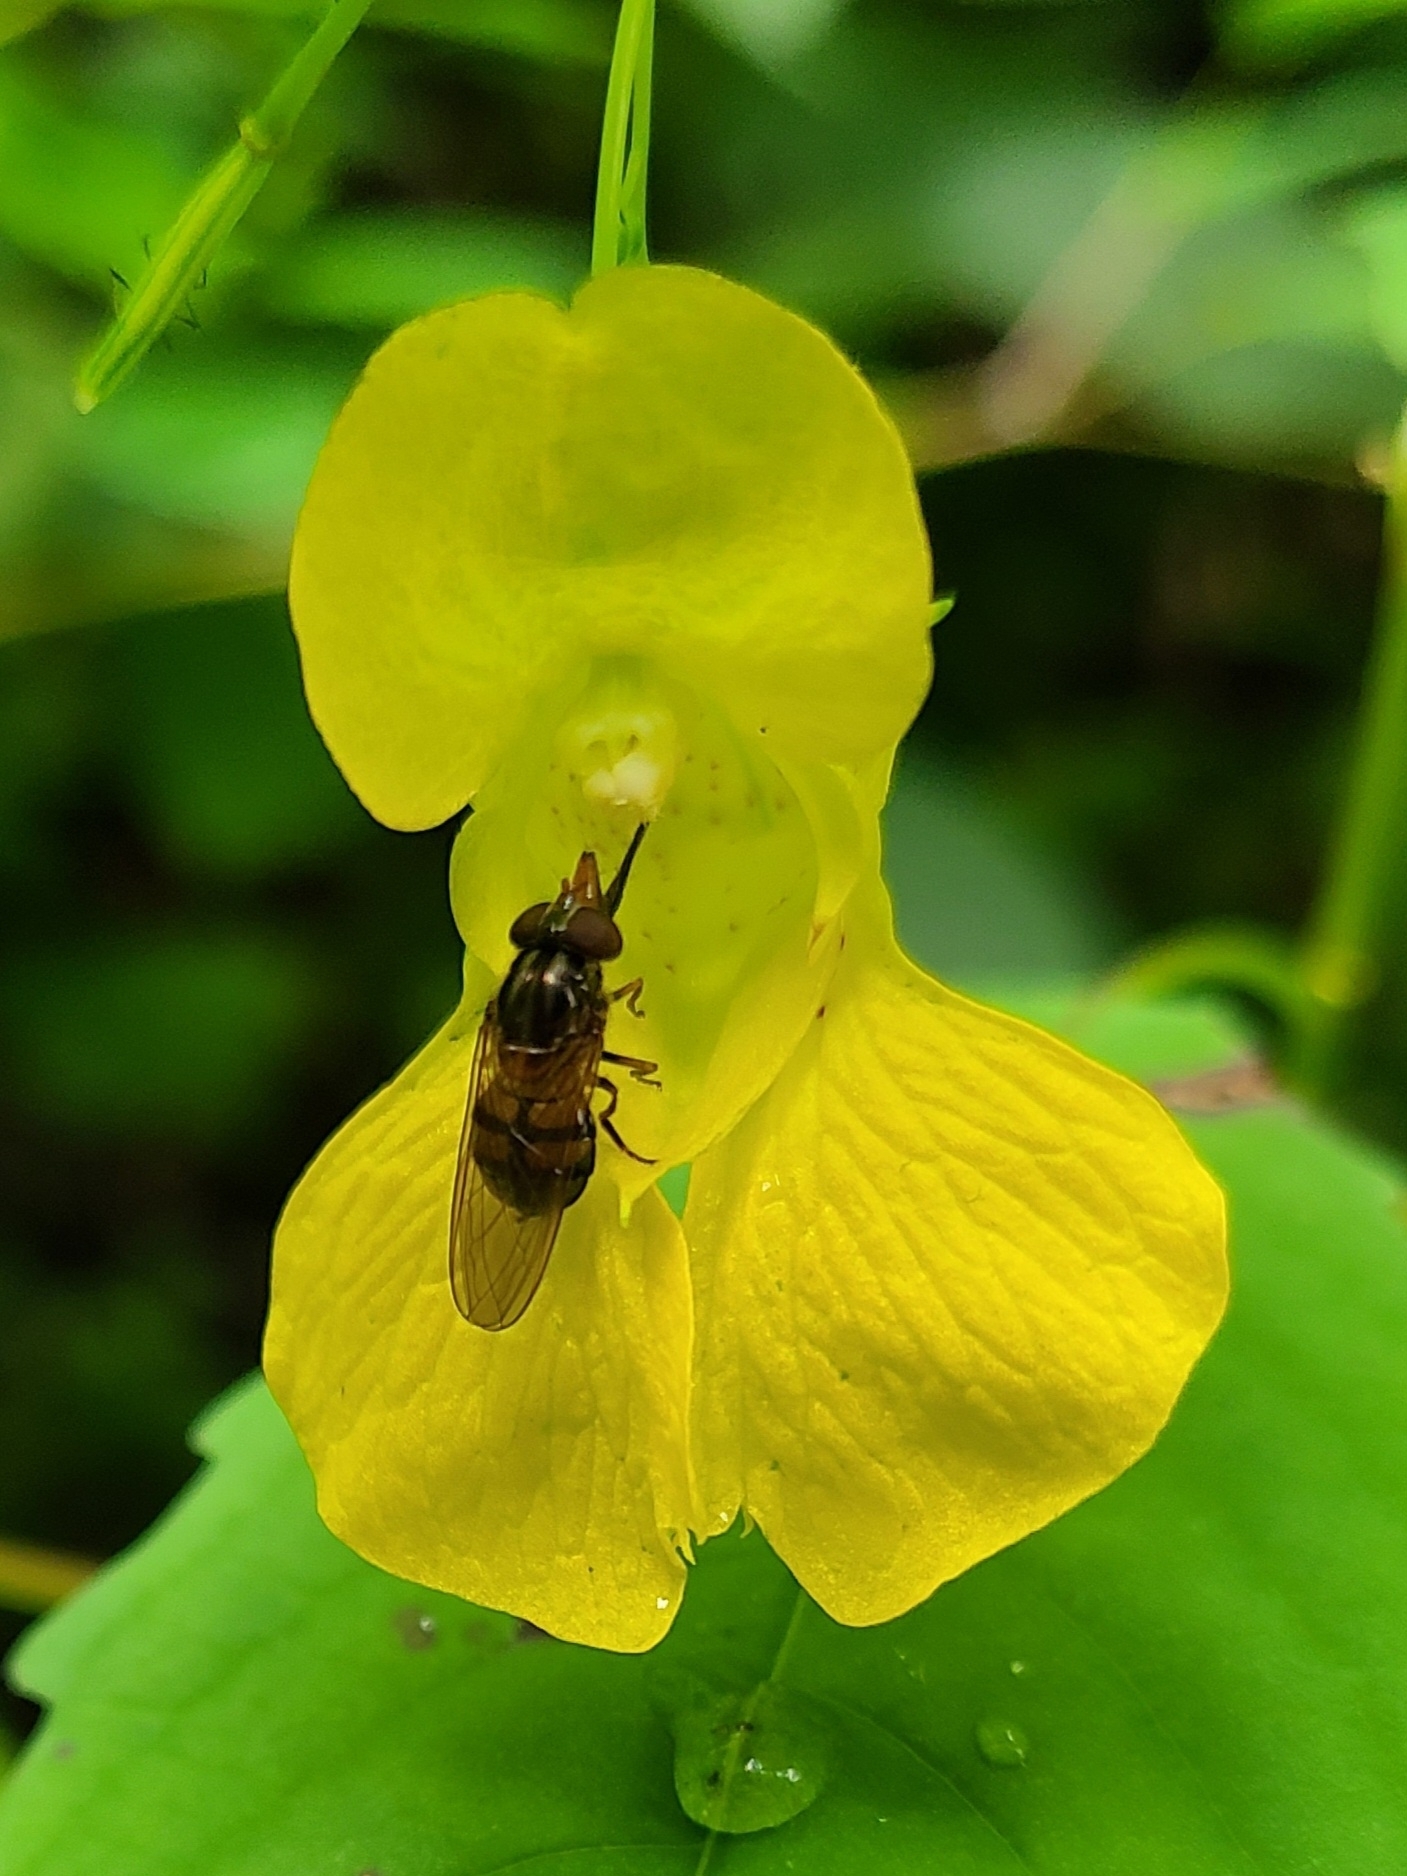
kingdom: Animalia
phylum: Arthropoda
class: Insecta
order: Diptera
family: Syrphidae
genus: Rhingia
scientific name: Rhingia nasica
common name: American snout fly
